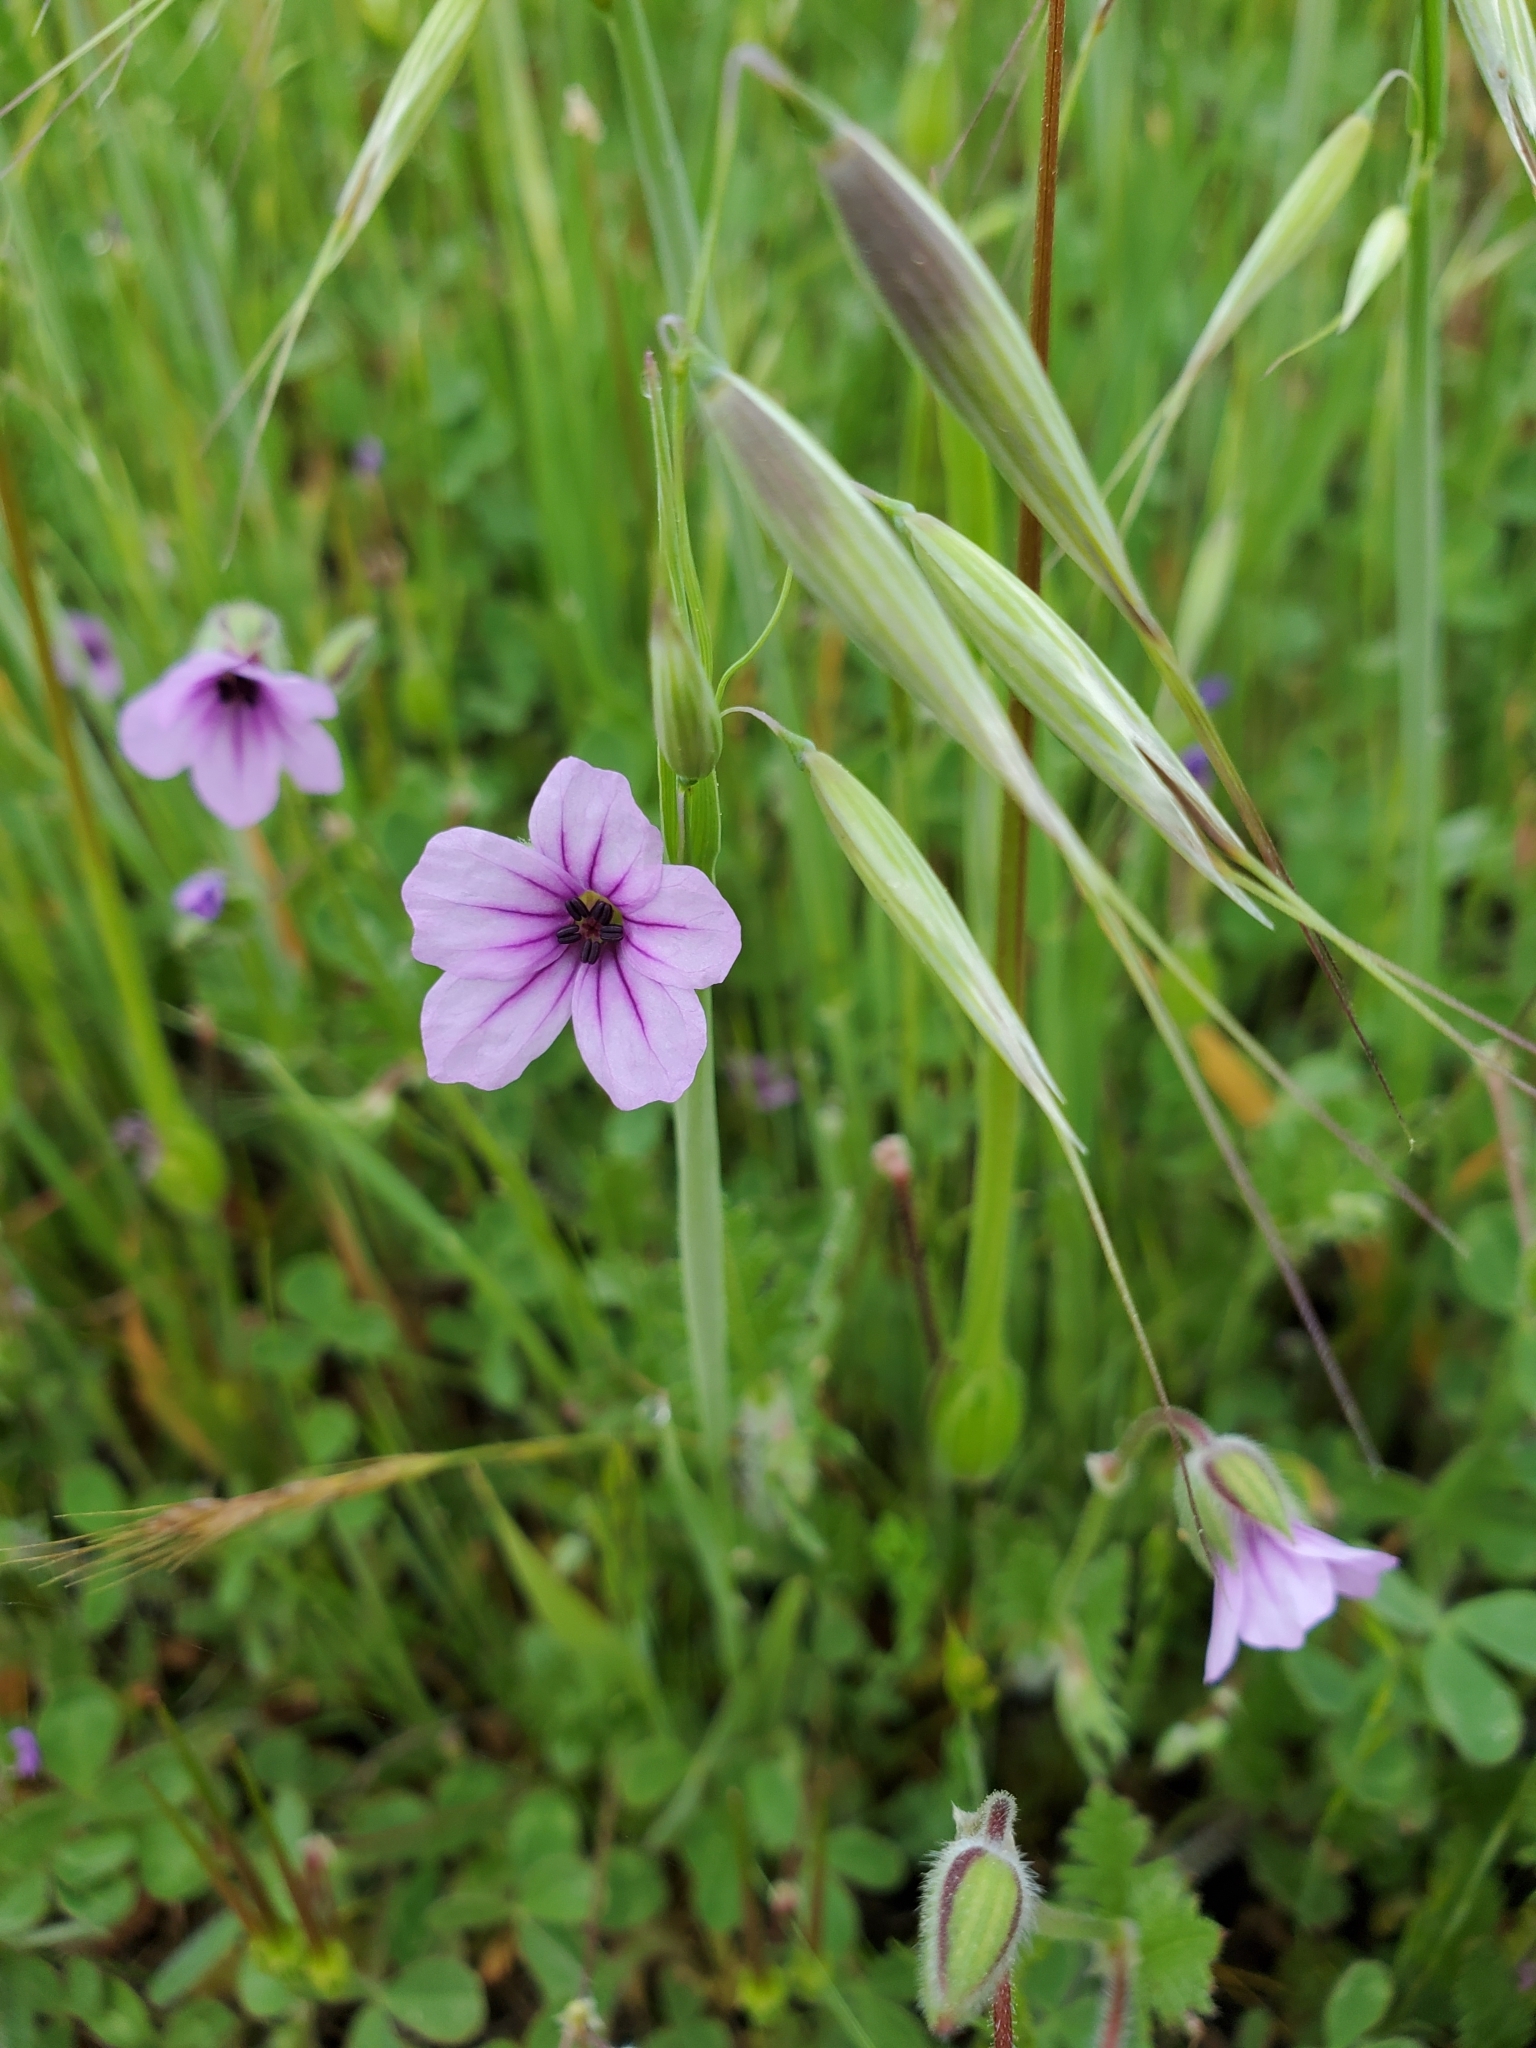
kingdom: Plantae
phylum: Tracheophyta
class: Magnoliopsida
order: Geraniales
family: Geraniaceae
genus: Erodium
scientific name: Erodium botrys
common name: Mediterranean stork's-bill
